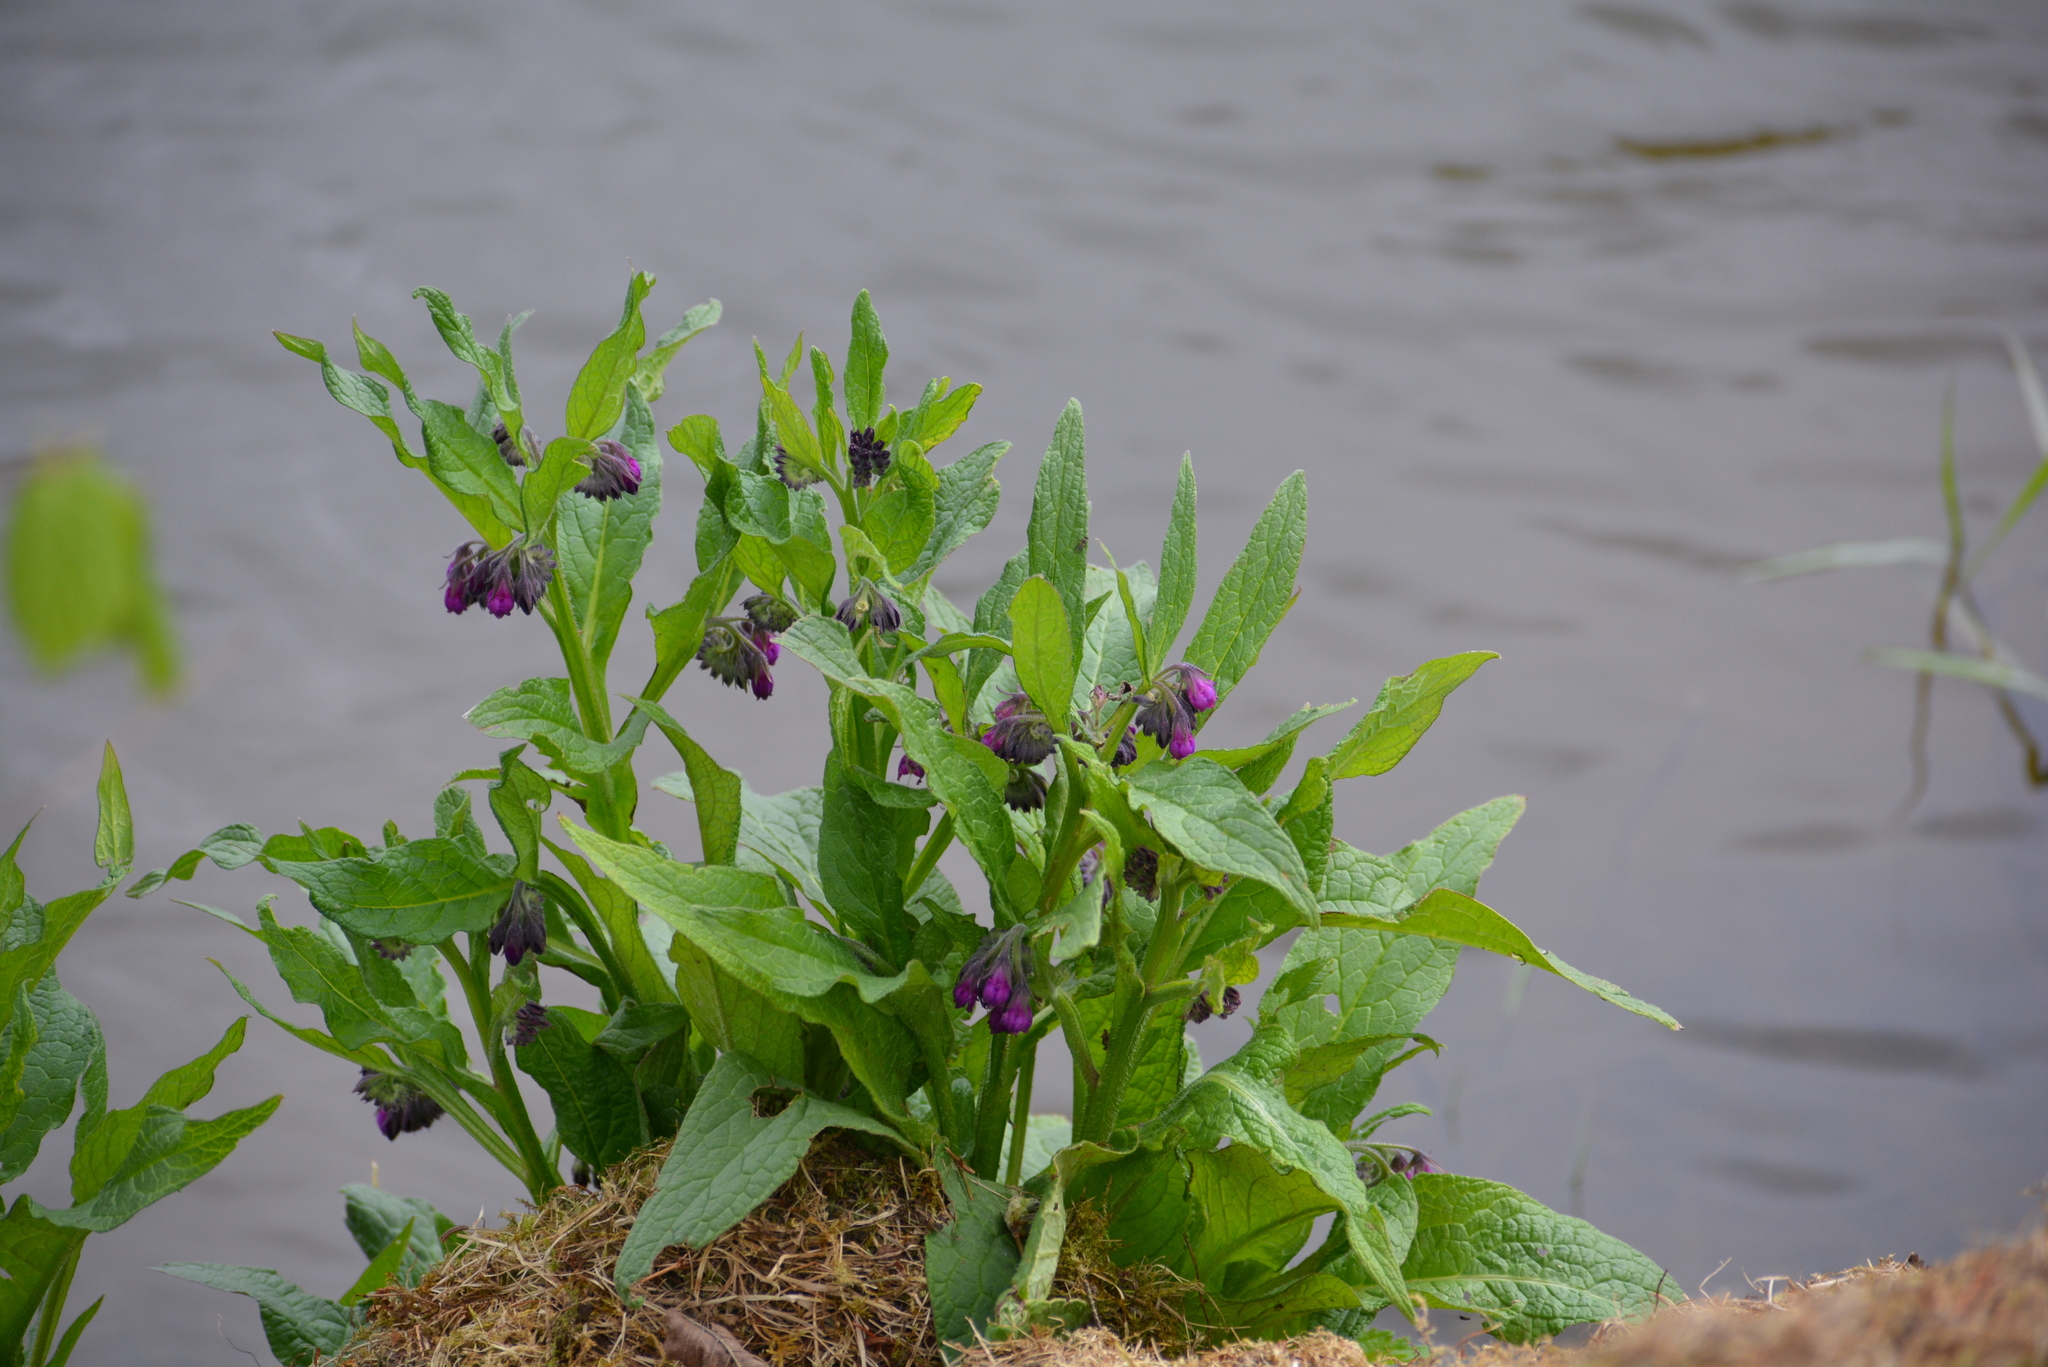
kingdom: Plantae
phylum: Tracheophyta
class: Magnoliopsida
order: Boraginales
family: Boraginaceae
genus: Symphytum
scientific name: Symphytum officinale
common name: Common comfrey
